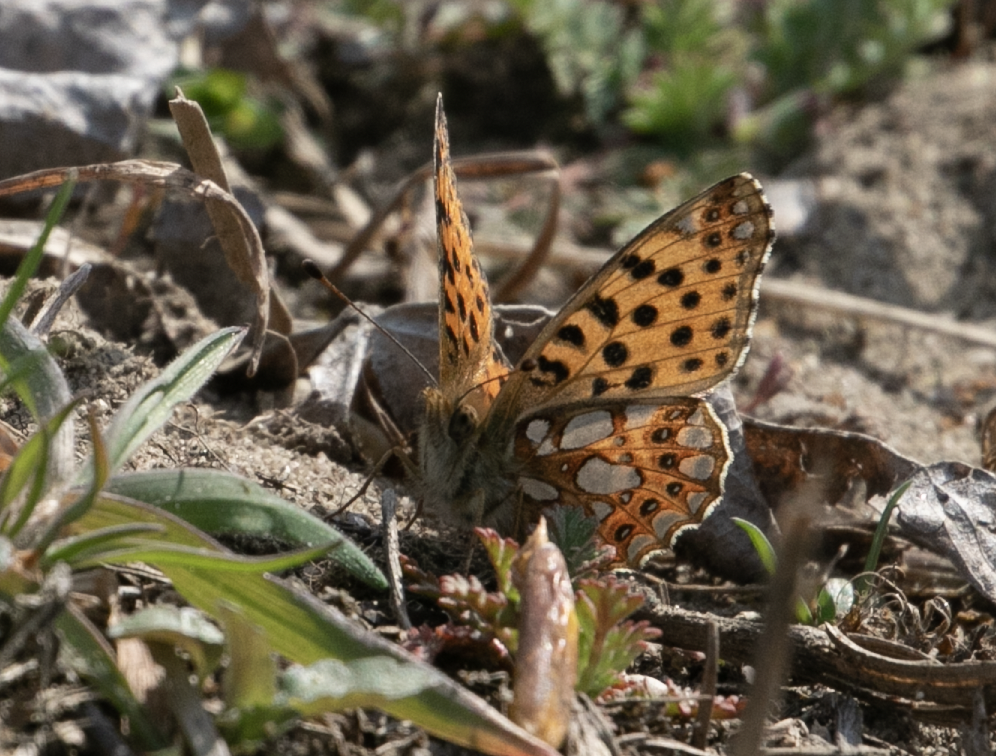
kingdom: Animalia
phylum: Arthropoda
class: Insecta
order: Lepidoptera
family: Nymphalidae
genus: Issoria
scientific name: Issoria lathonia
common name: Queen of spain fritillary
